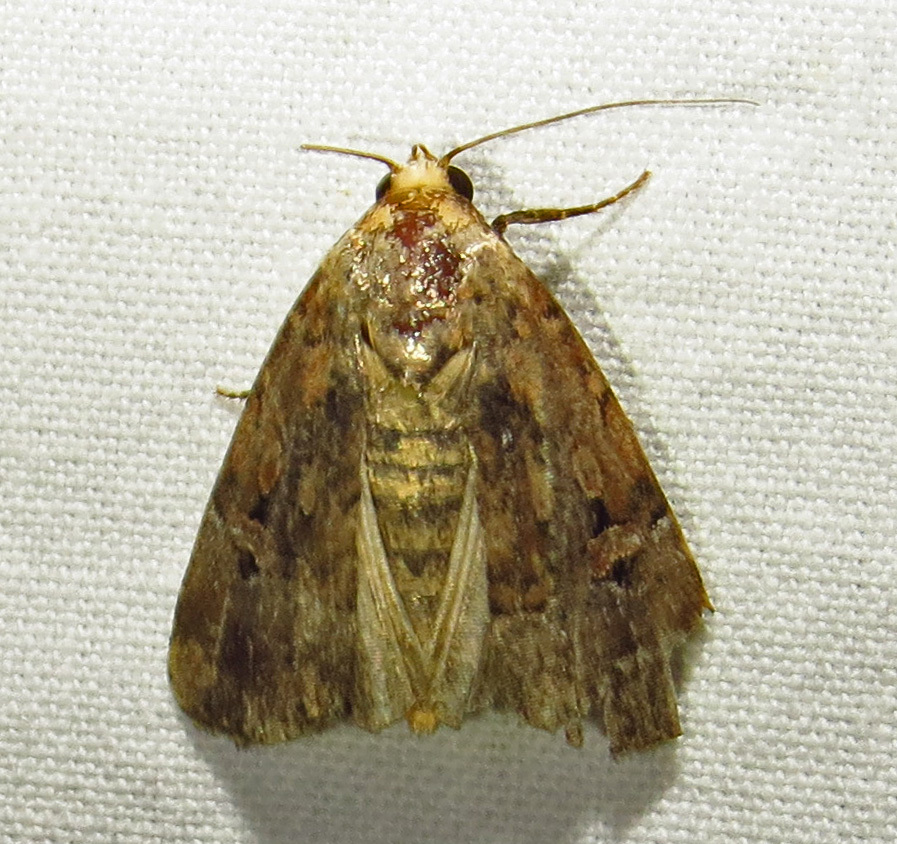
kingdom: Animalia
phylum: Arthropoda
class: Insecta
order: Lepidoptera
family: Noctuidae
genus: Elaphria
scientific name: Elaphria chalcedonia
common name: Chalcedony midget
